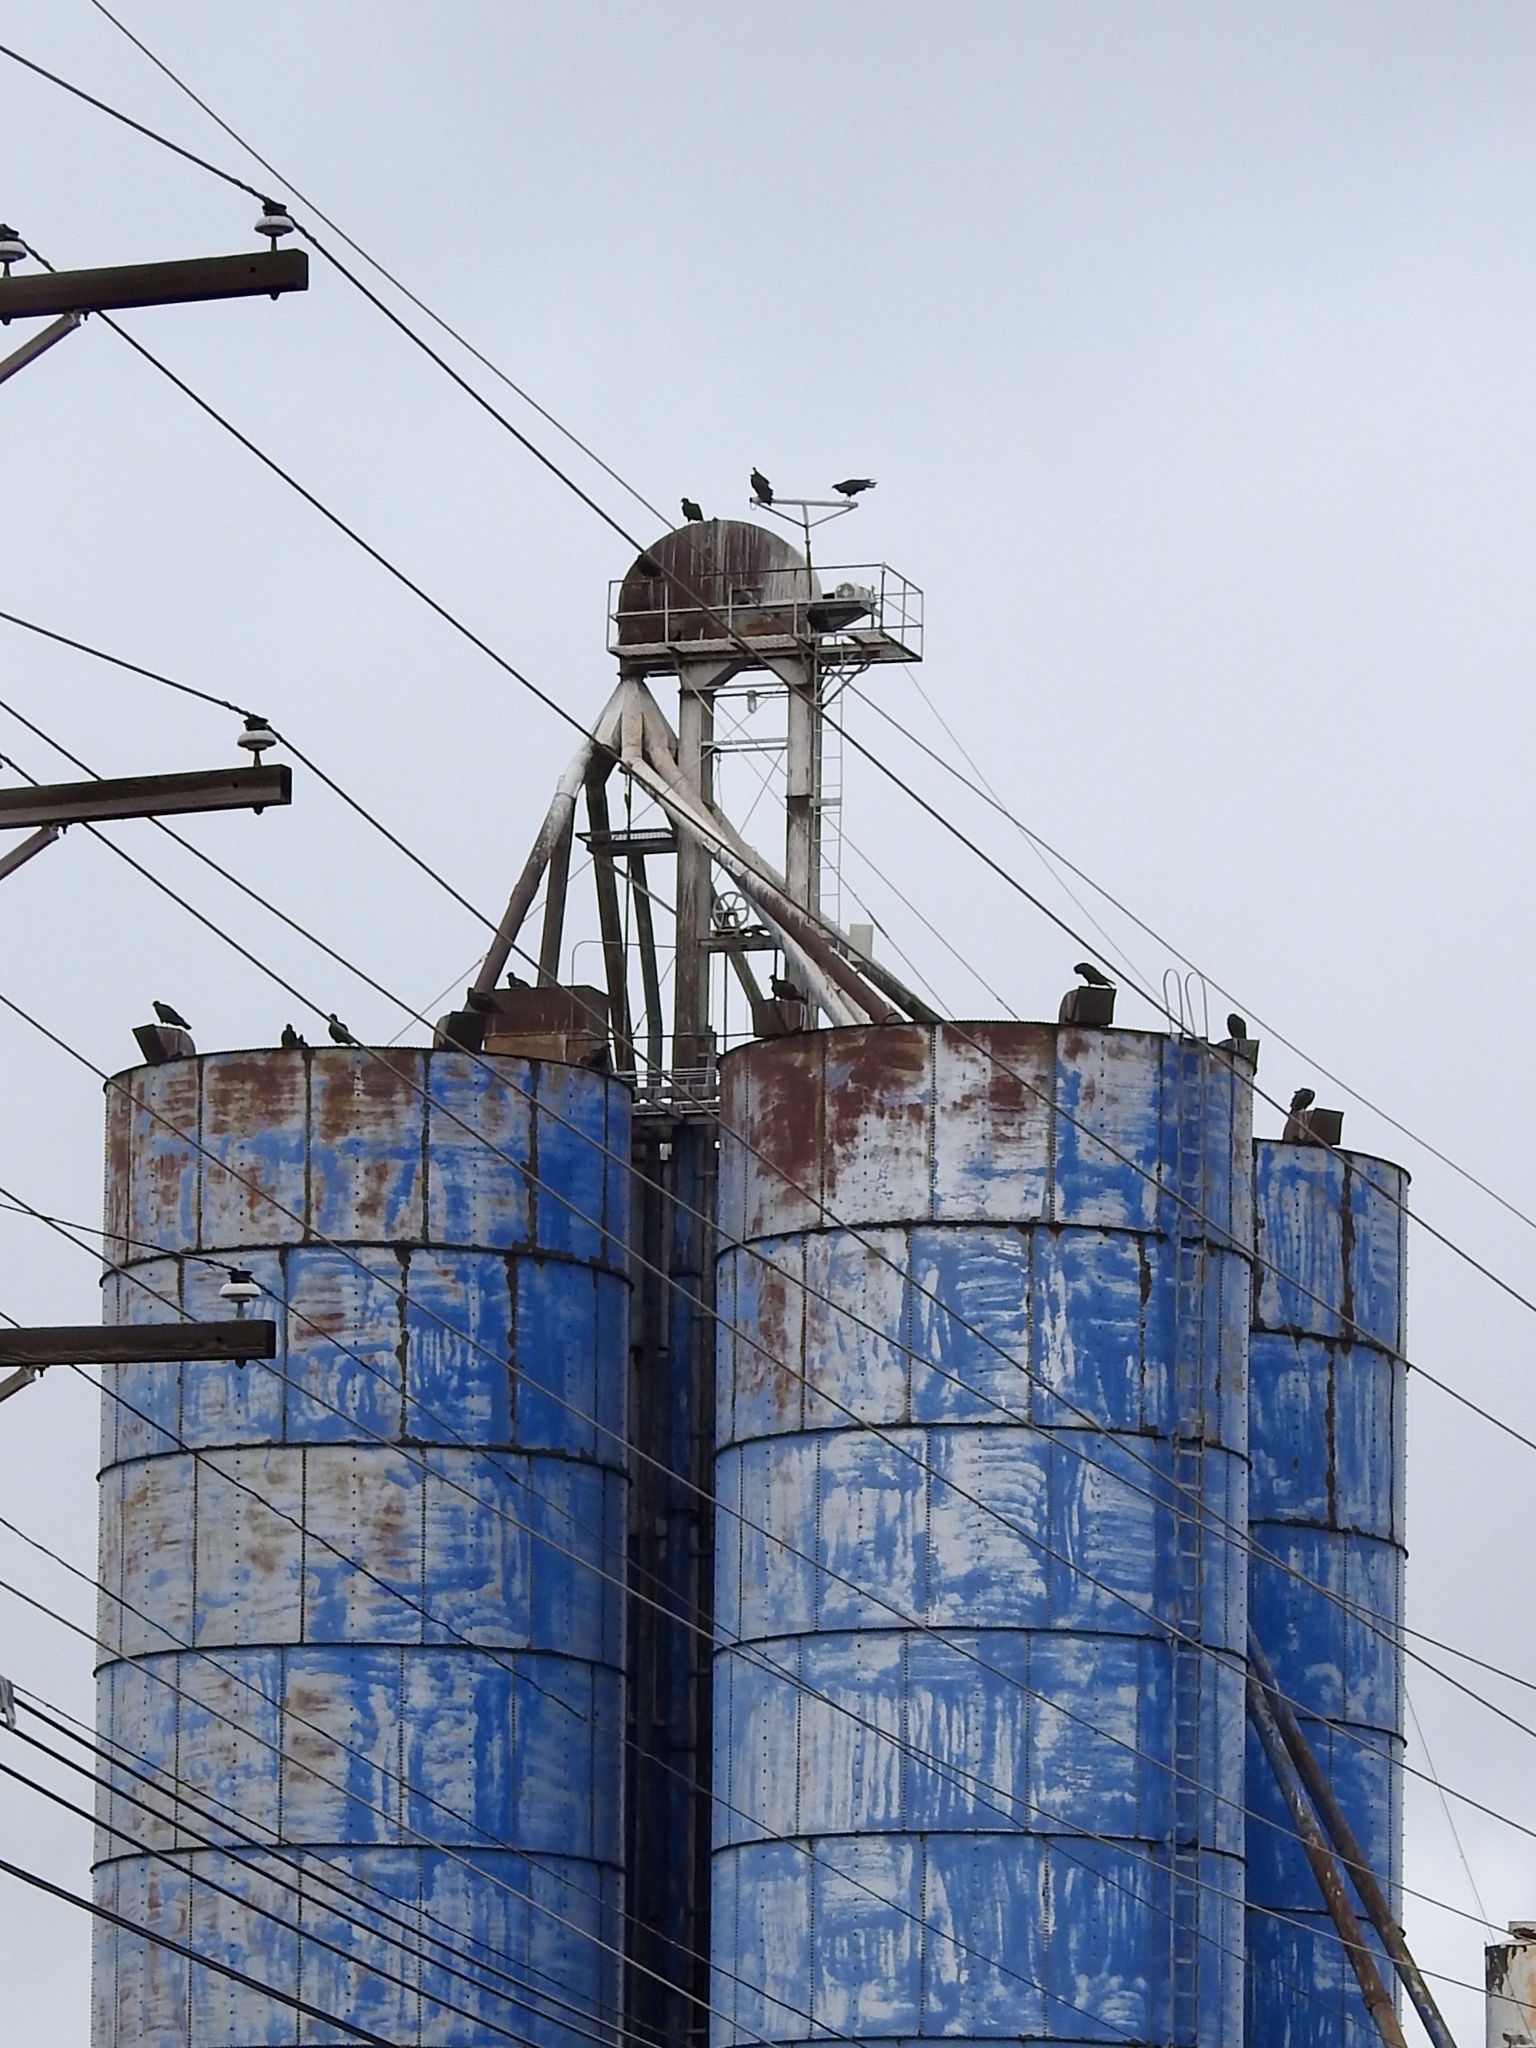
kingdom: Animalia
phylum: Chordata
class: Aves
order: Accipitriformes
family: Cathartidae
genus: Cathartes
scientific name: Cathartes aura
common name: Turkey vulture
